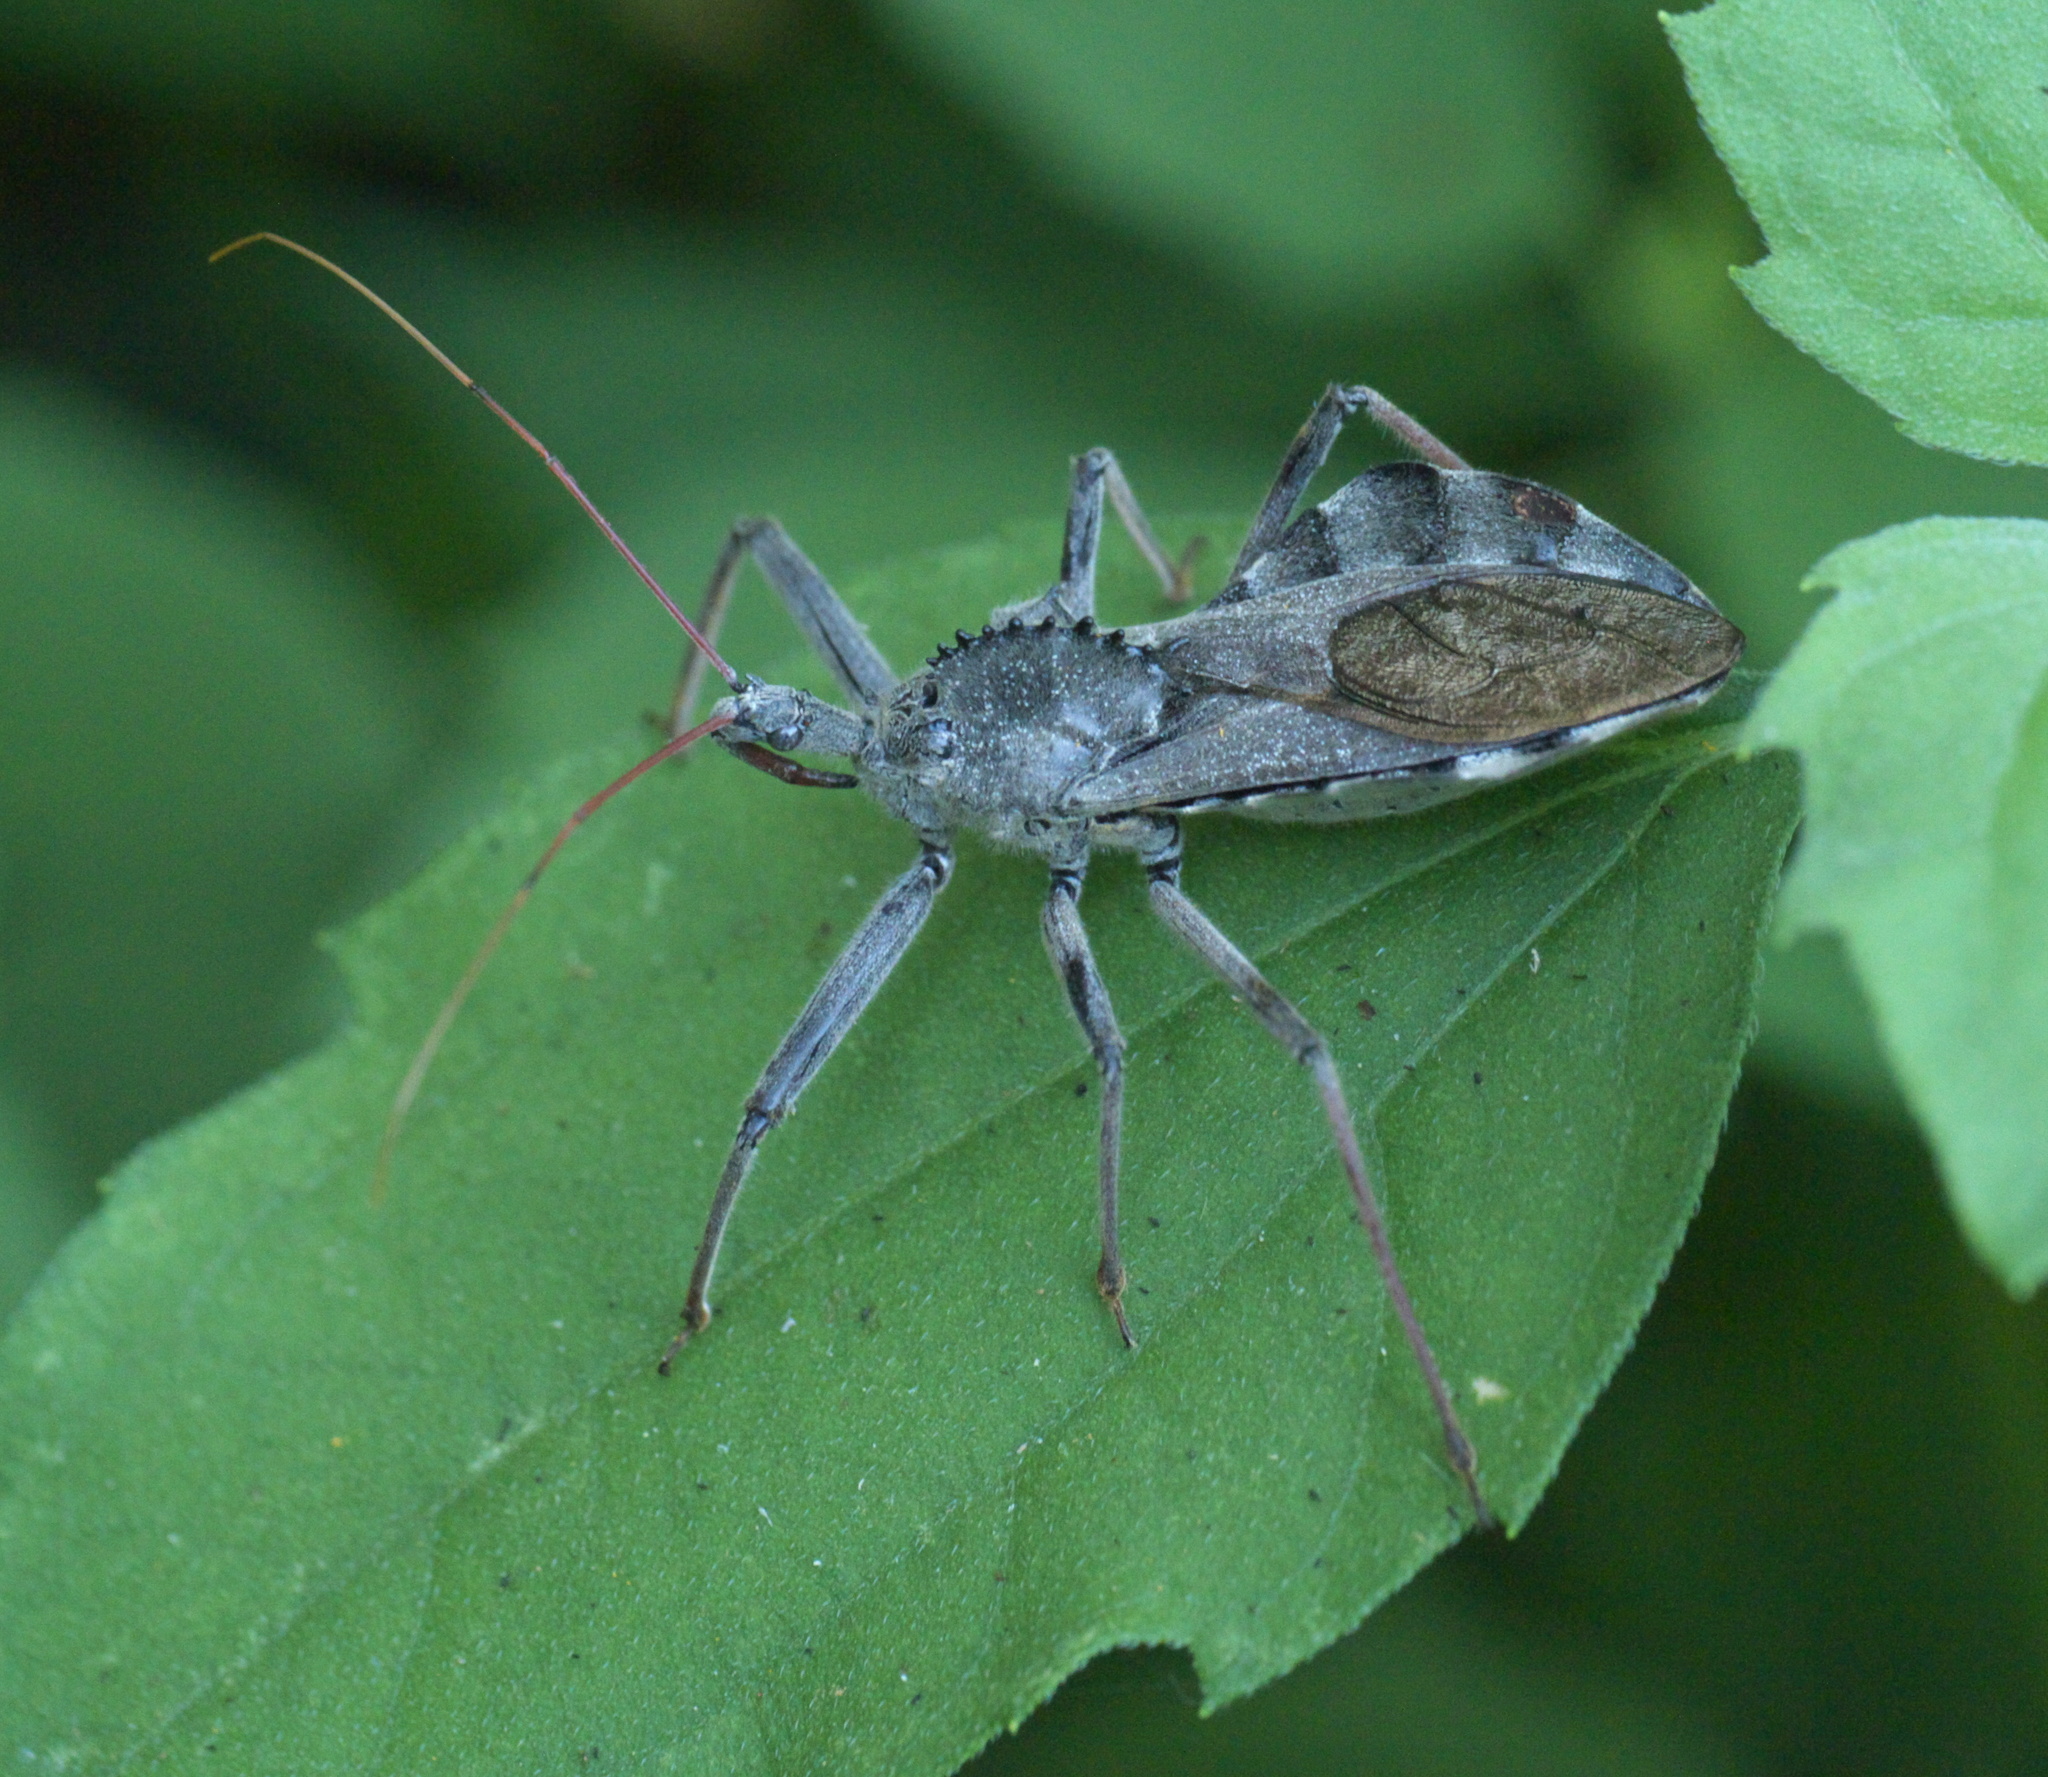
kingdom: Animalia
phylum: Arthropoda
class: Insecta
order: Hemiptera
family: Reduviidae
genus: Arilus
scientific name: Arilus cristatus
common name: North american wheel bug
